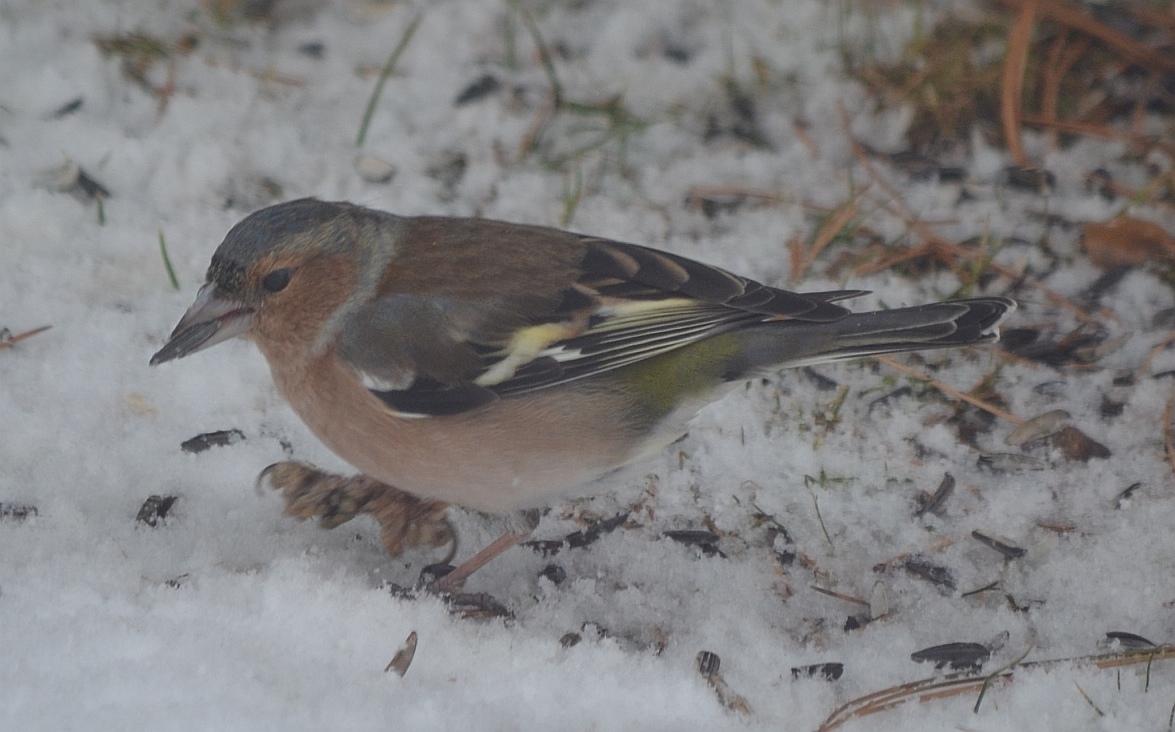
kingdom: Animalia
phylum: Chordata
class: Aves
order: Passeriformes
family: Fringillidae
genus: Fringilla
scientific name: Fringilla coelebs
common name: Common chaffinch
